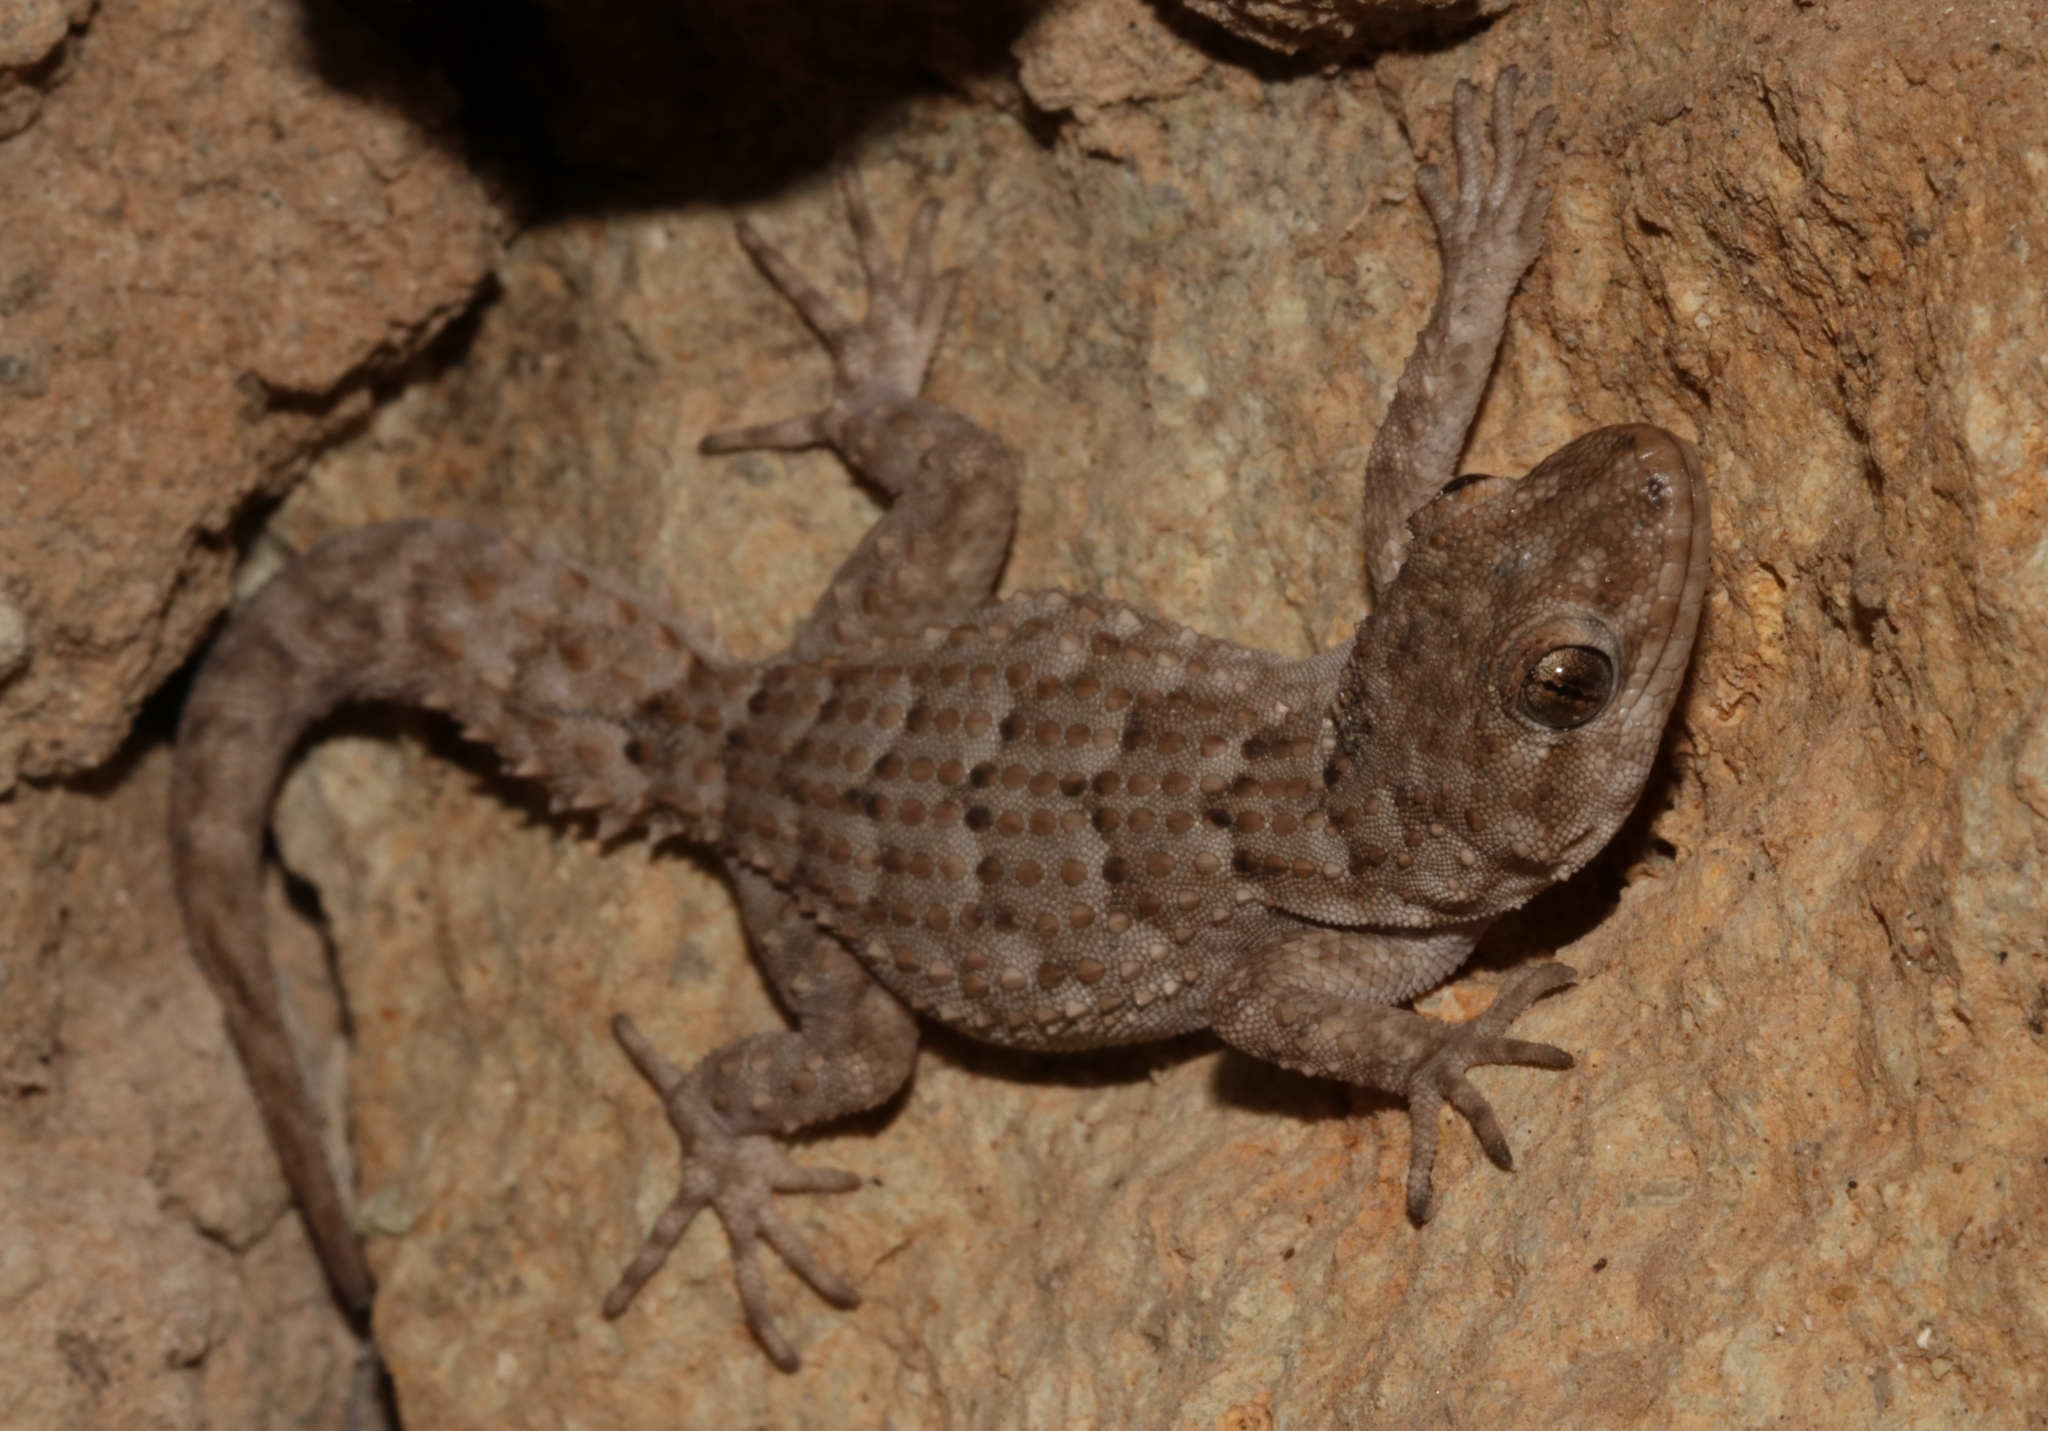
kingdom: Animalia
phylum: Chordata
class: Squamata
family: Gekkonidae
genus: Mediodactylus
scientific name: Mediodactylus kotschyi
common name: Kotschy's gecko
